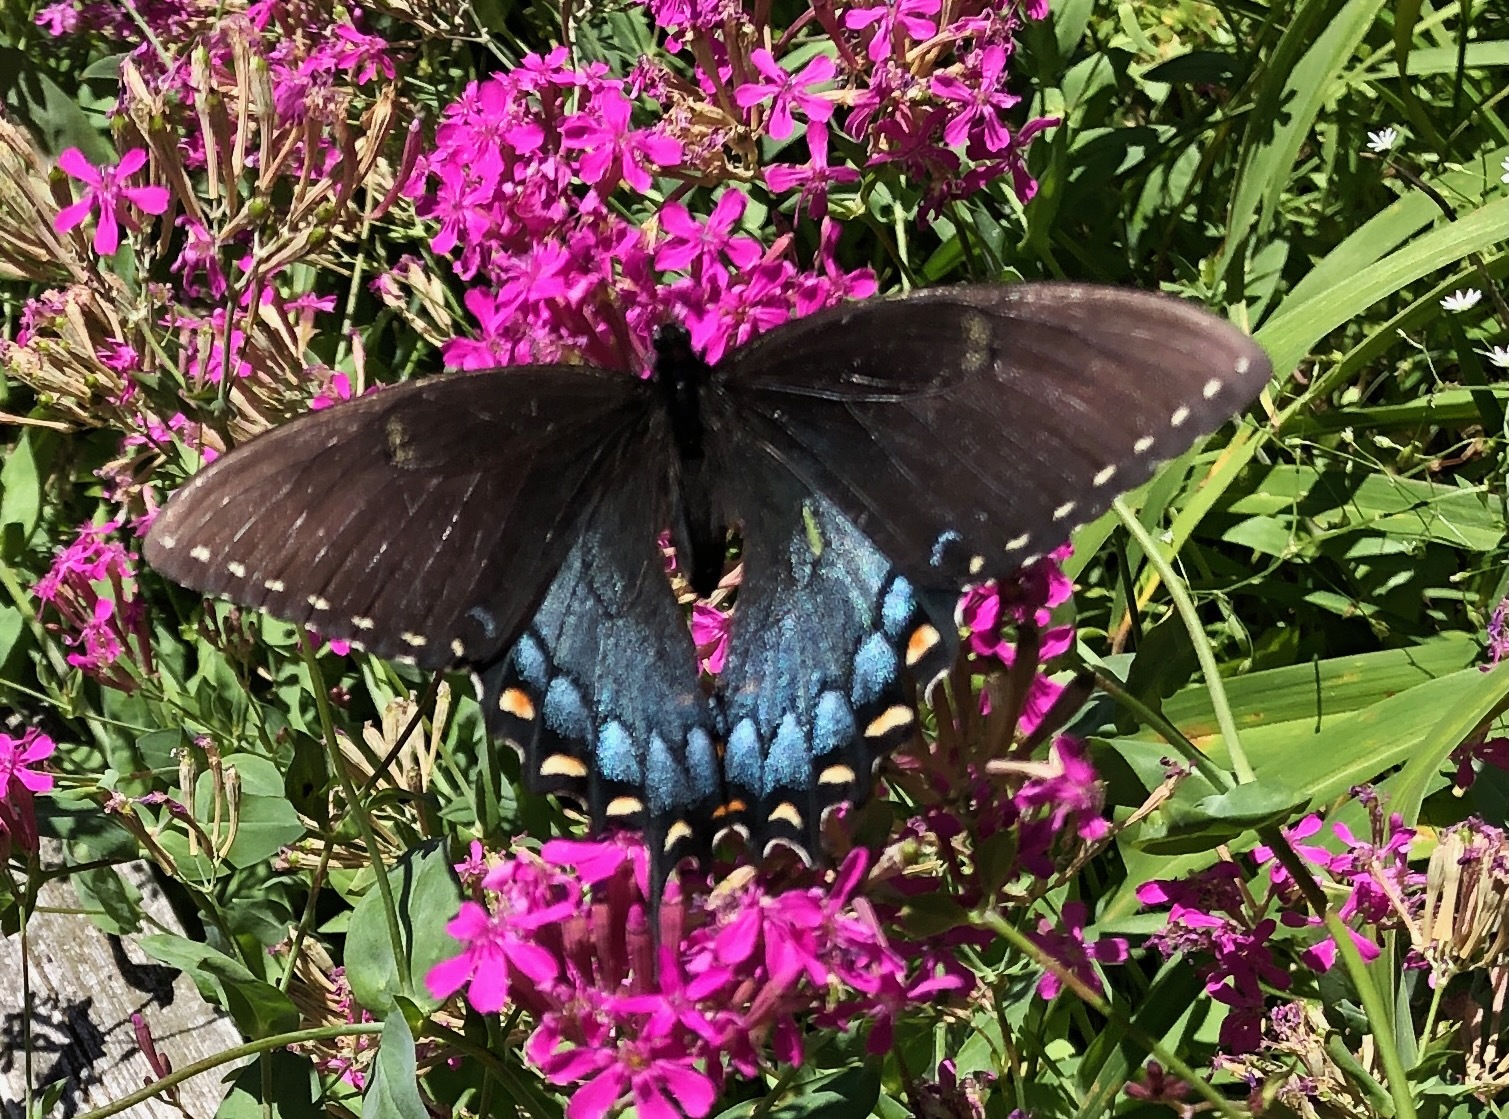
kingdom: Animalia
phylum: Arthropoda
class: Insecta
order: Lepidoptera
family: Papilionidae
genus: Papilio
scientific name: Papilio glaucus
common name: Tiger swallowtail
